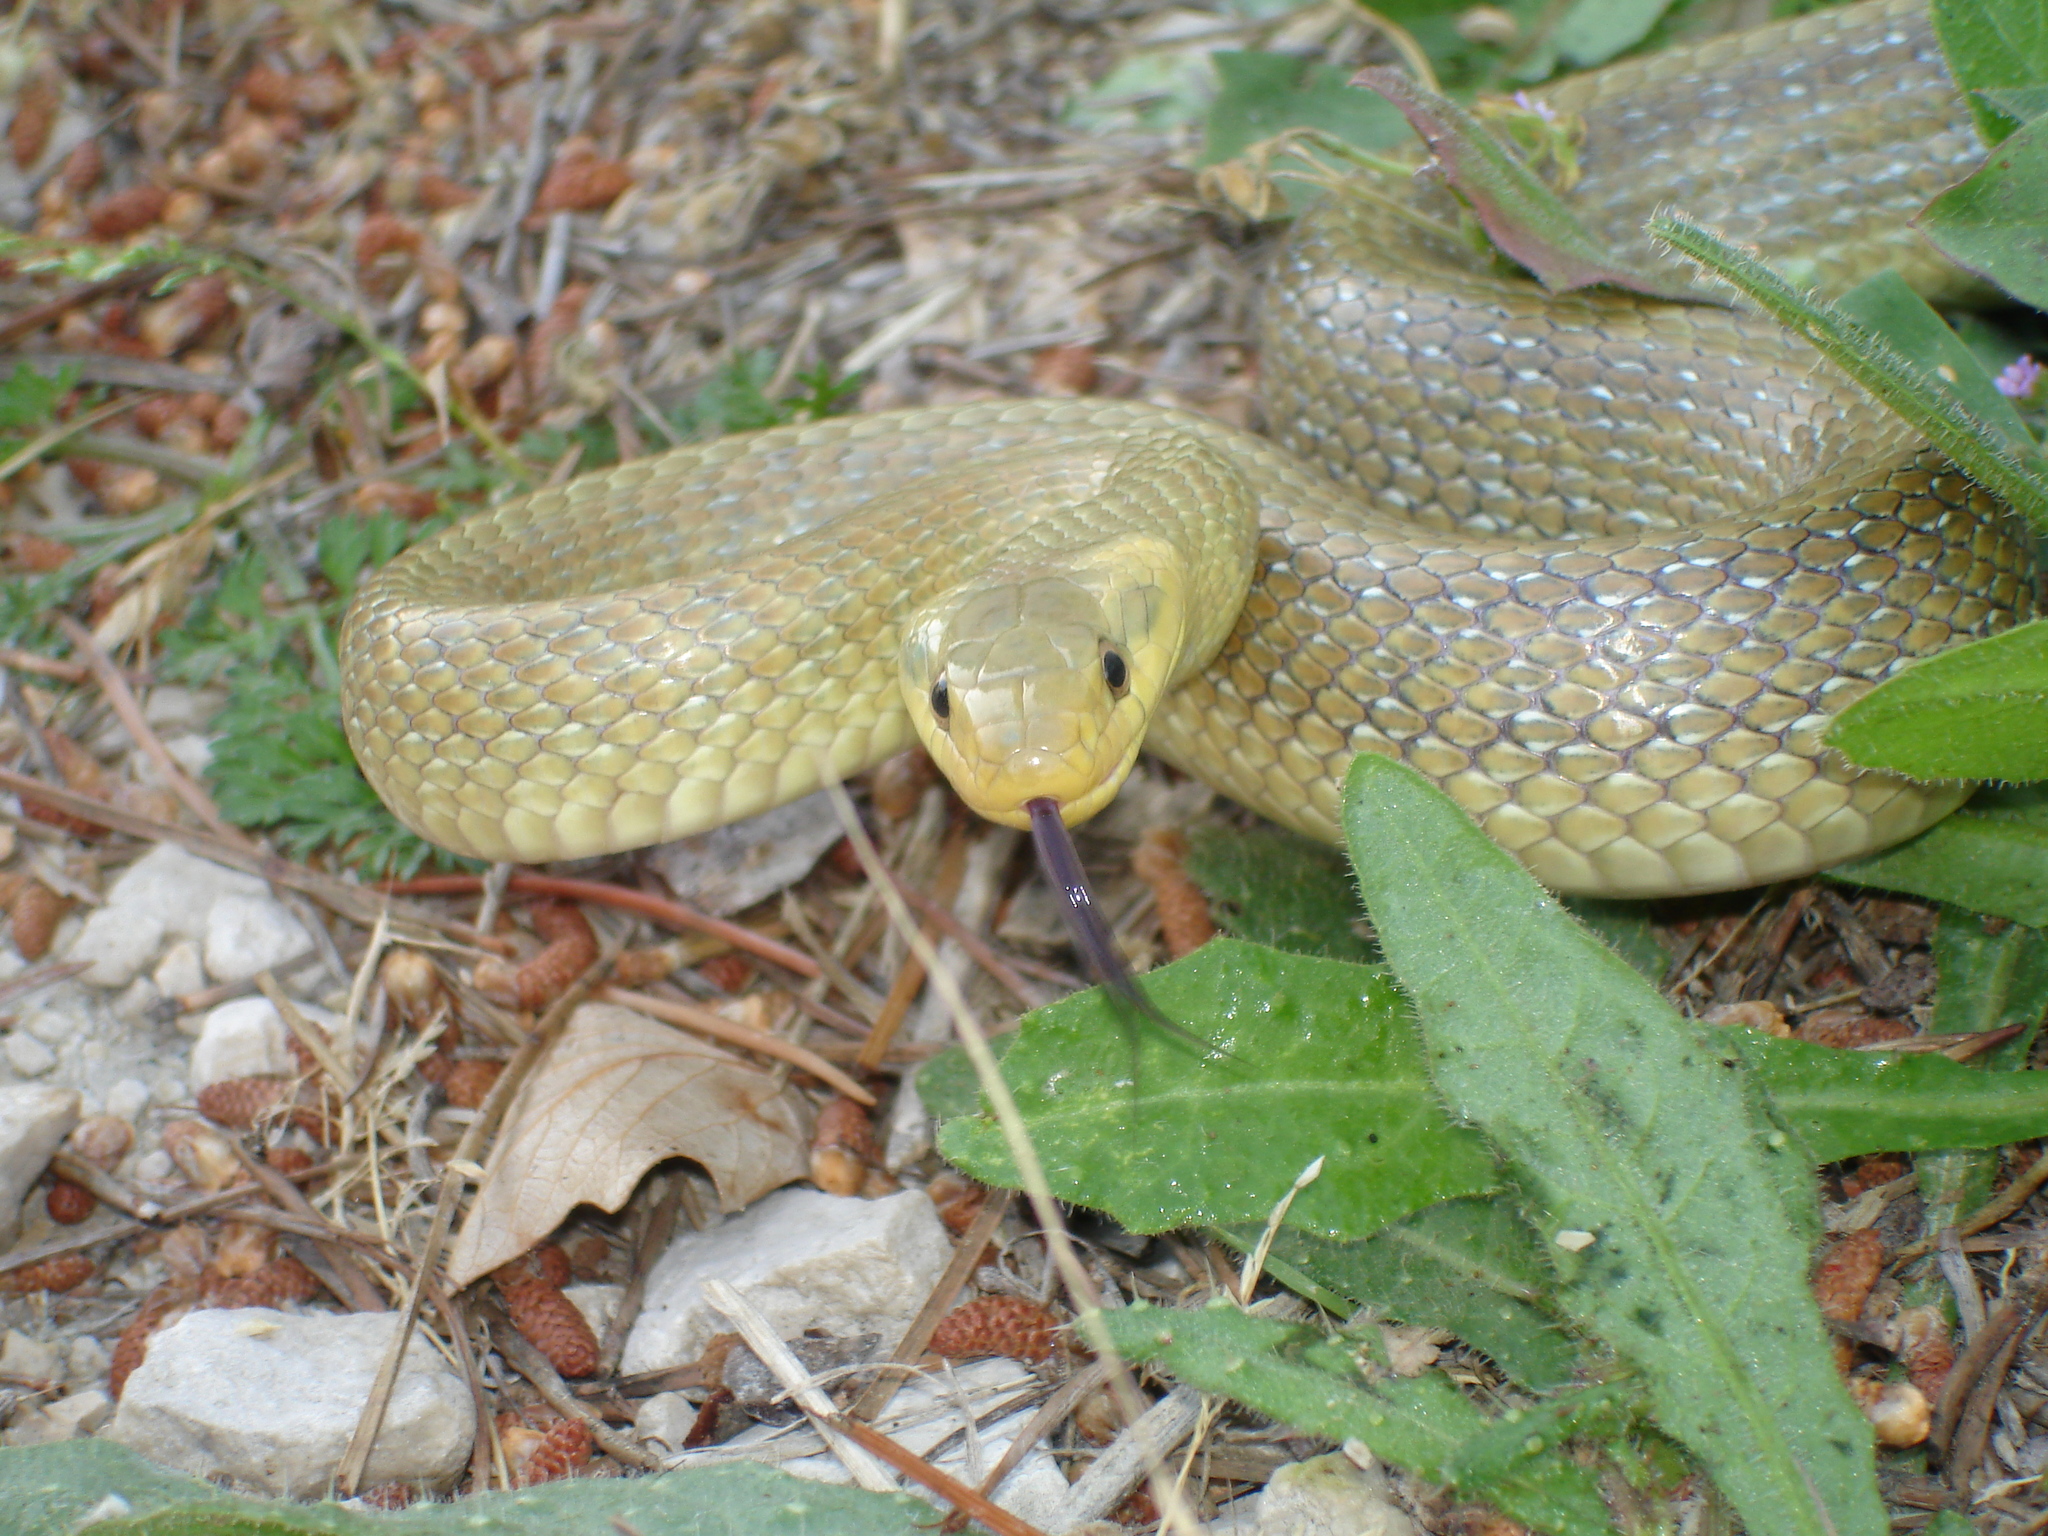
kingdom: Animalia
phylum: Chordata
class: Squamata
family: Colubridae
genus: Zamenis
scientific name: Zamenis longissimus
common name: Aesculapean snake
